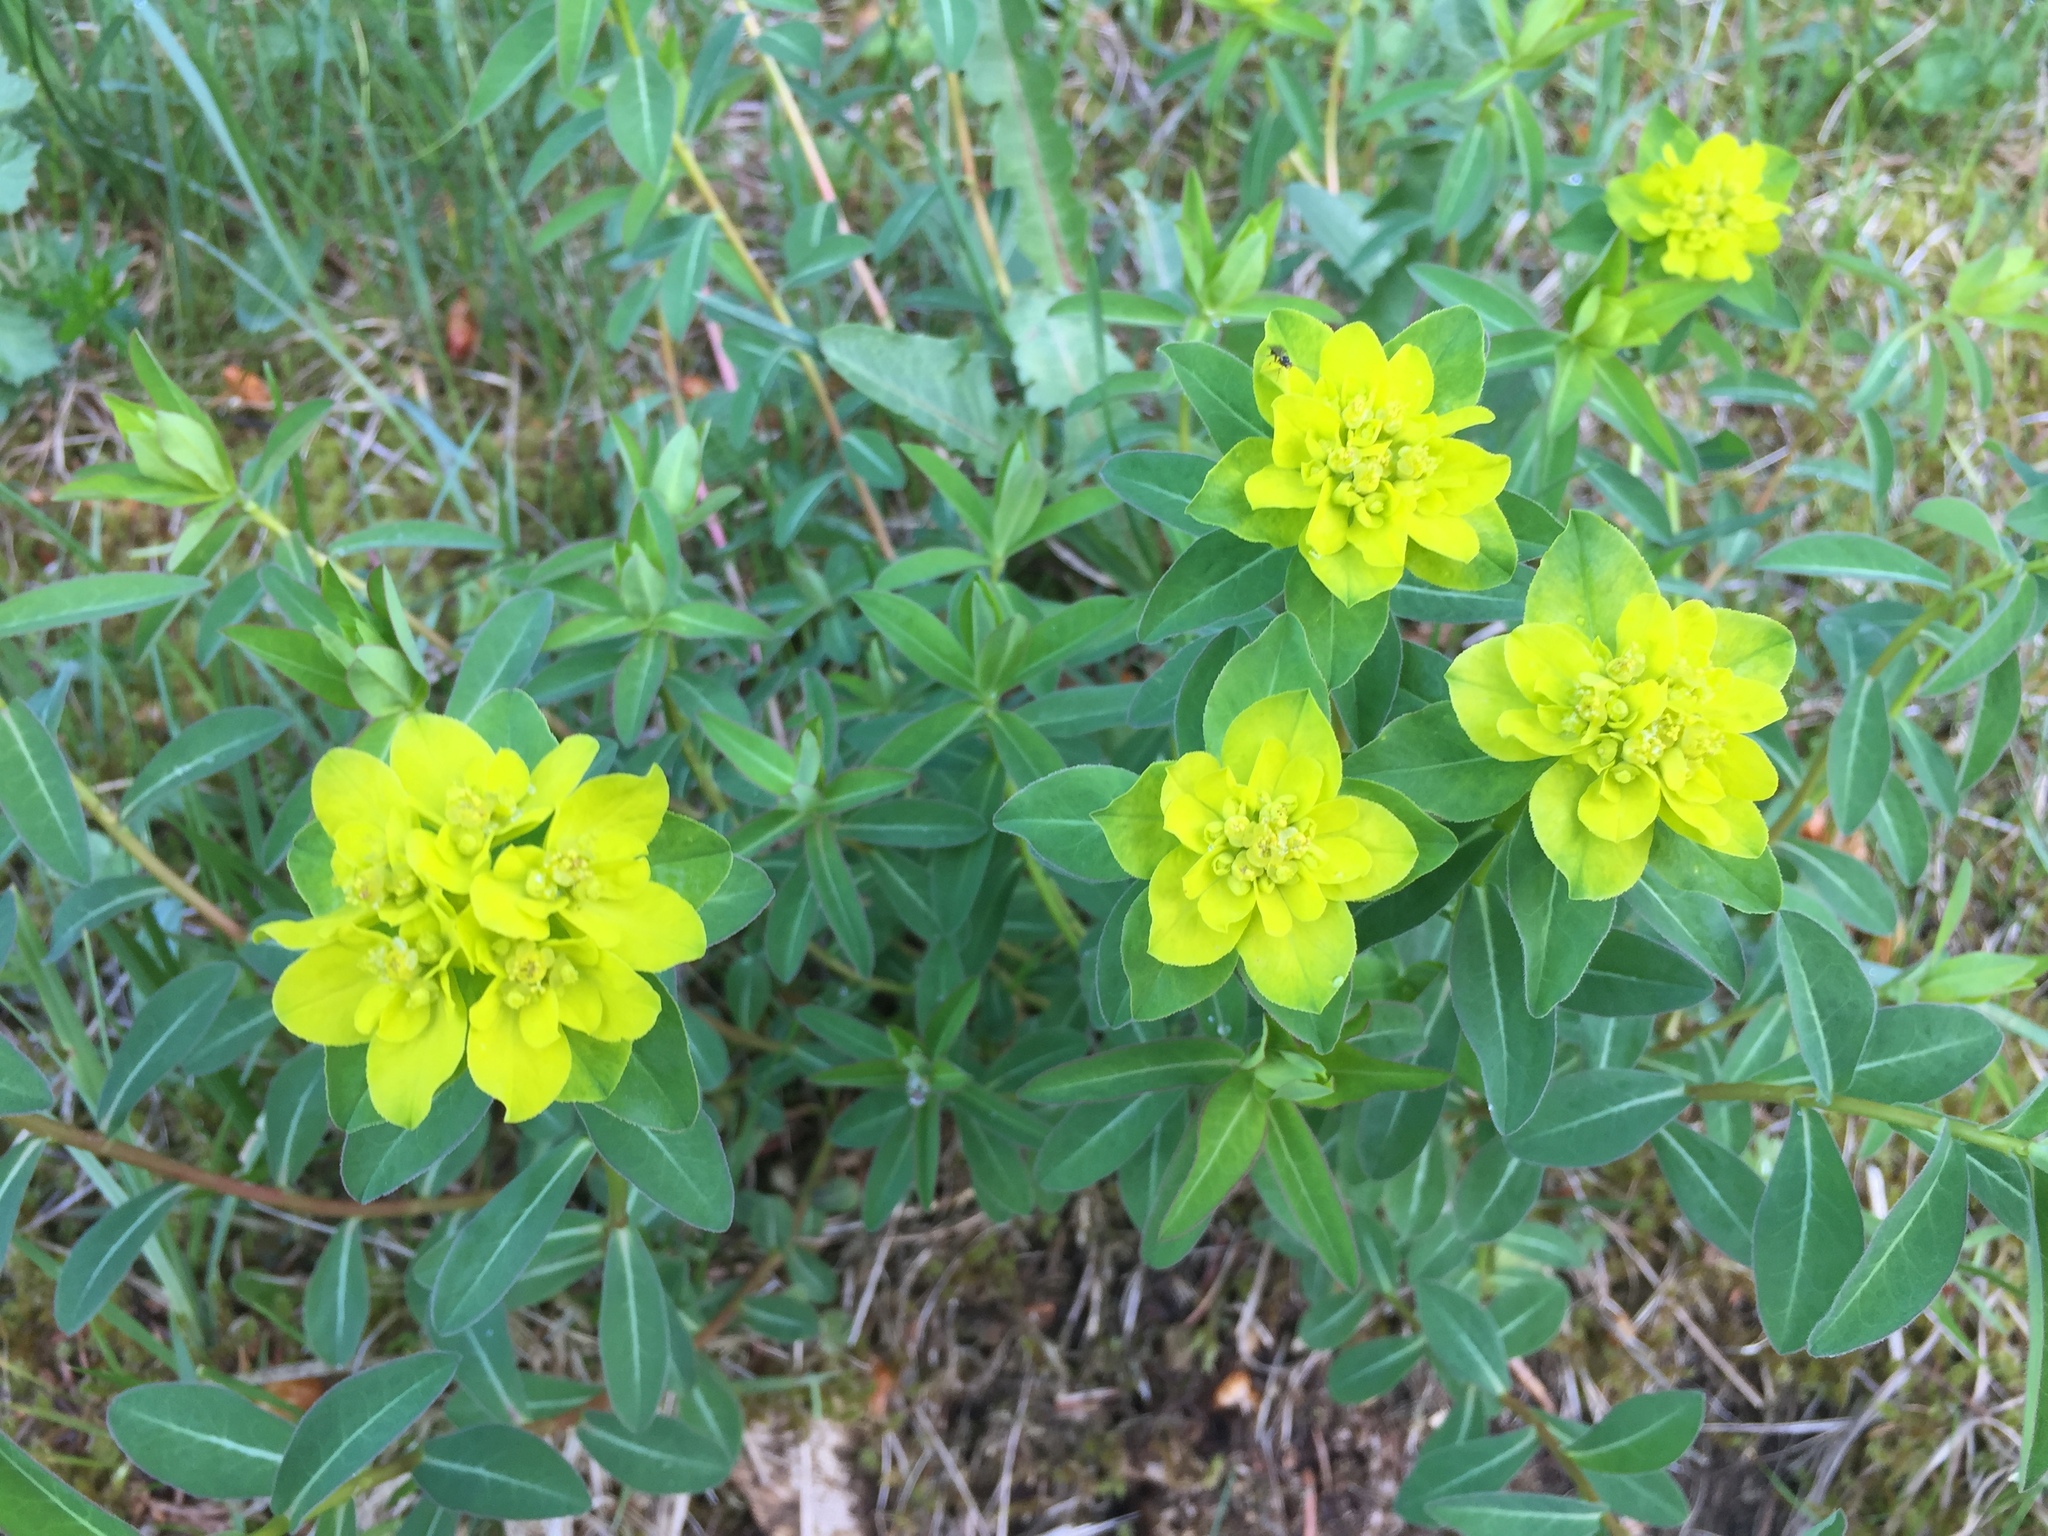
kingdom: Plantae
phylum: Tracheophyta
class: Magnoliopsida
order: Malpighiales
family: Euphorbiaceae
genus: Euphorbia
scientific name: Euphorbia verrucosa
